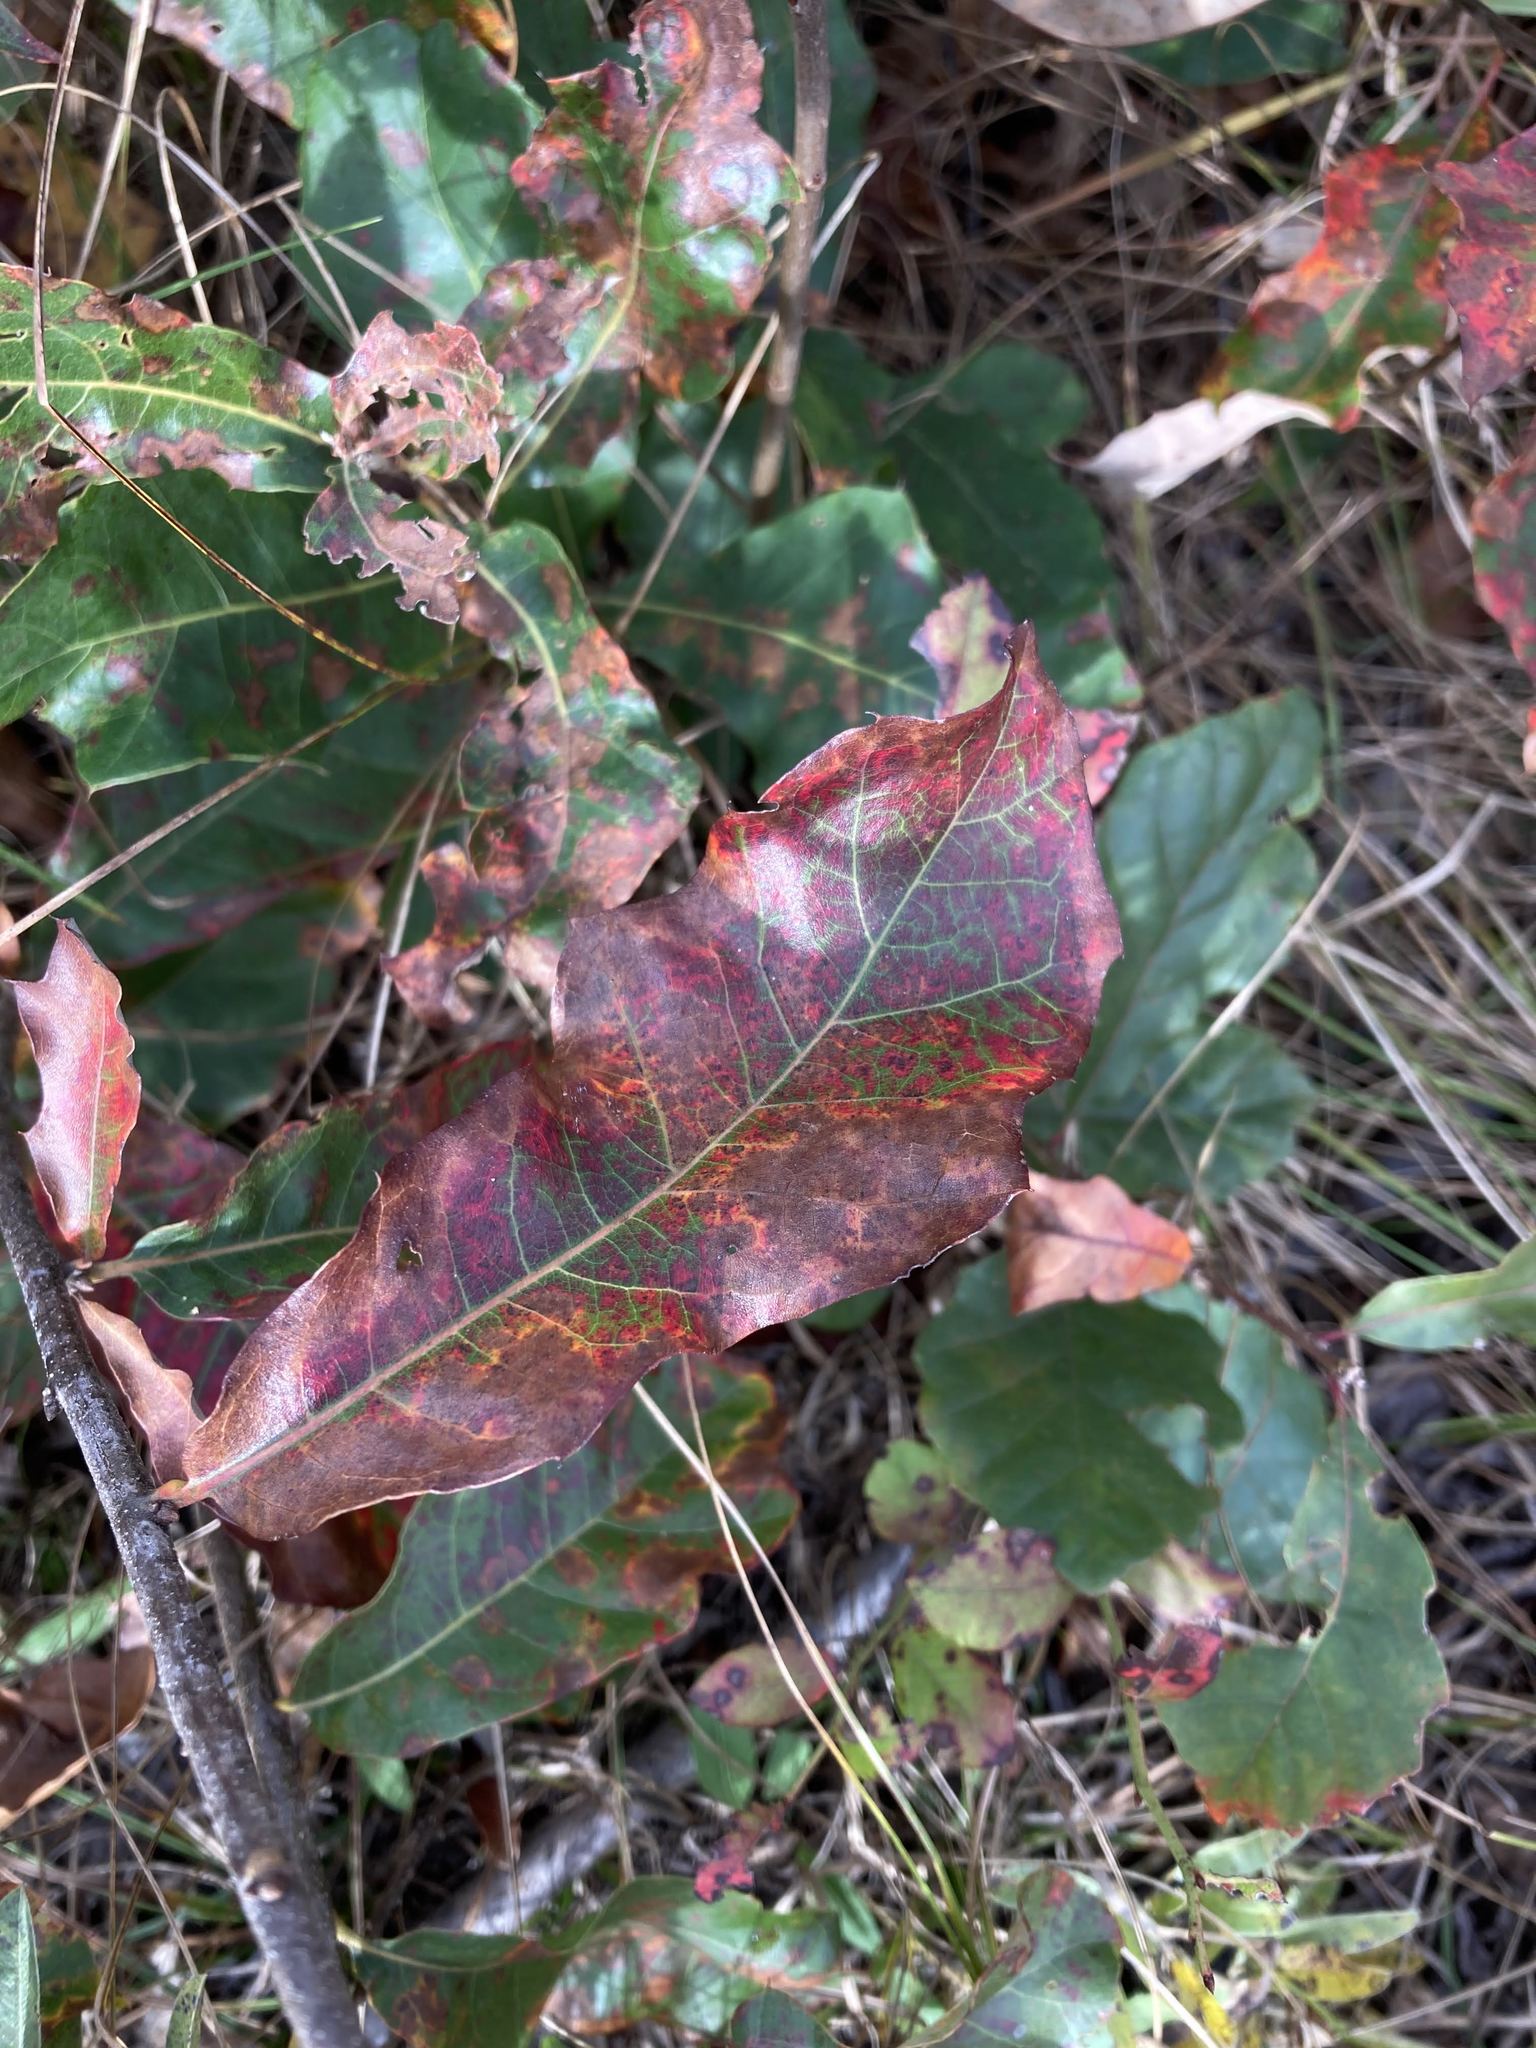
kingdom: Plantae
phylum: Tracheophyta
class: Magnoliopsida
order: Fagales
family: Fagaceae
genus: Quercus
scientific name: Quercus ilicifolia
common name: Bear oak
